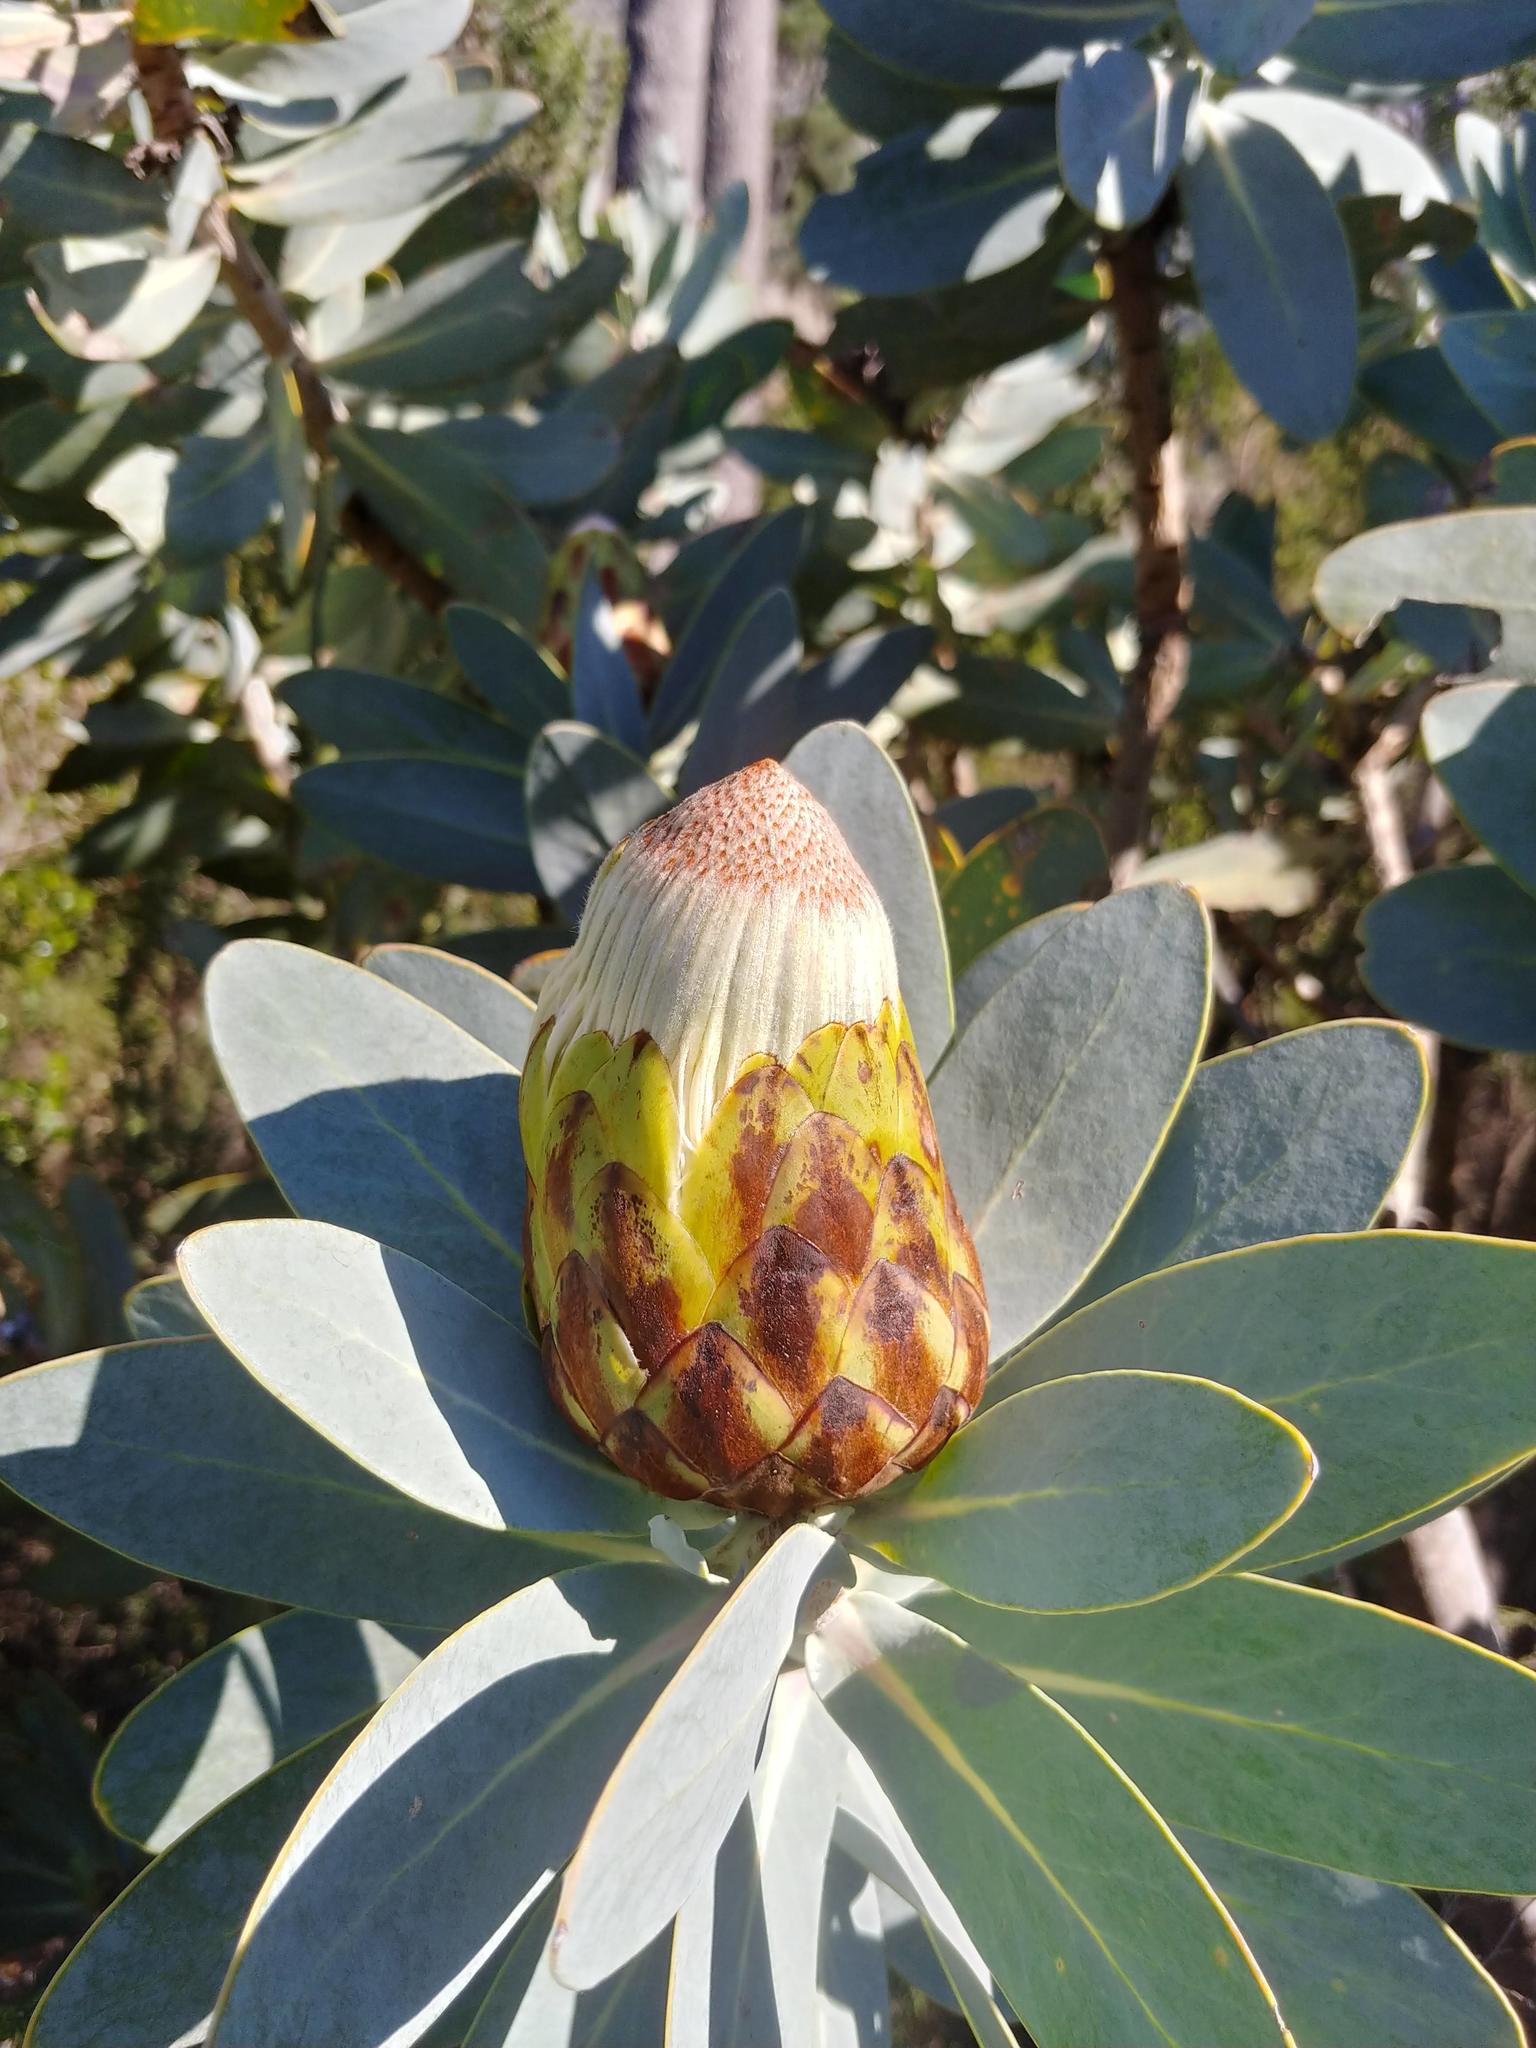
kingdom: Plantae
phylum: Tracheophyta
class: Magnoliopsida
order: Proteales
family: Proteaceae
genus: Protea
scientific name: Protea nitida
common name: Tree protea
